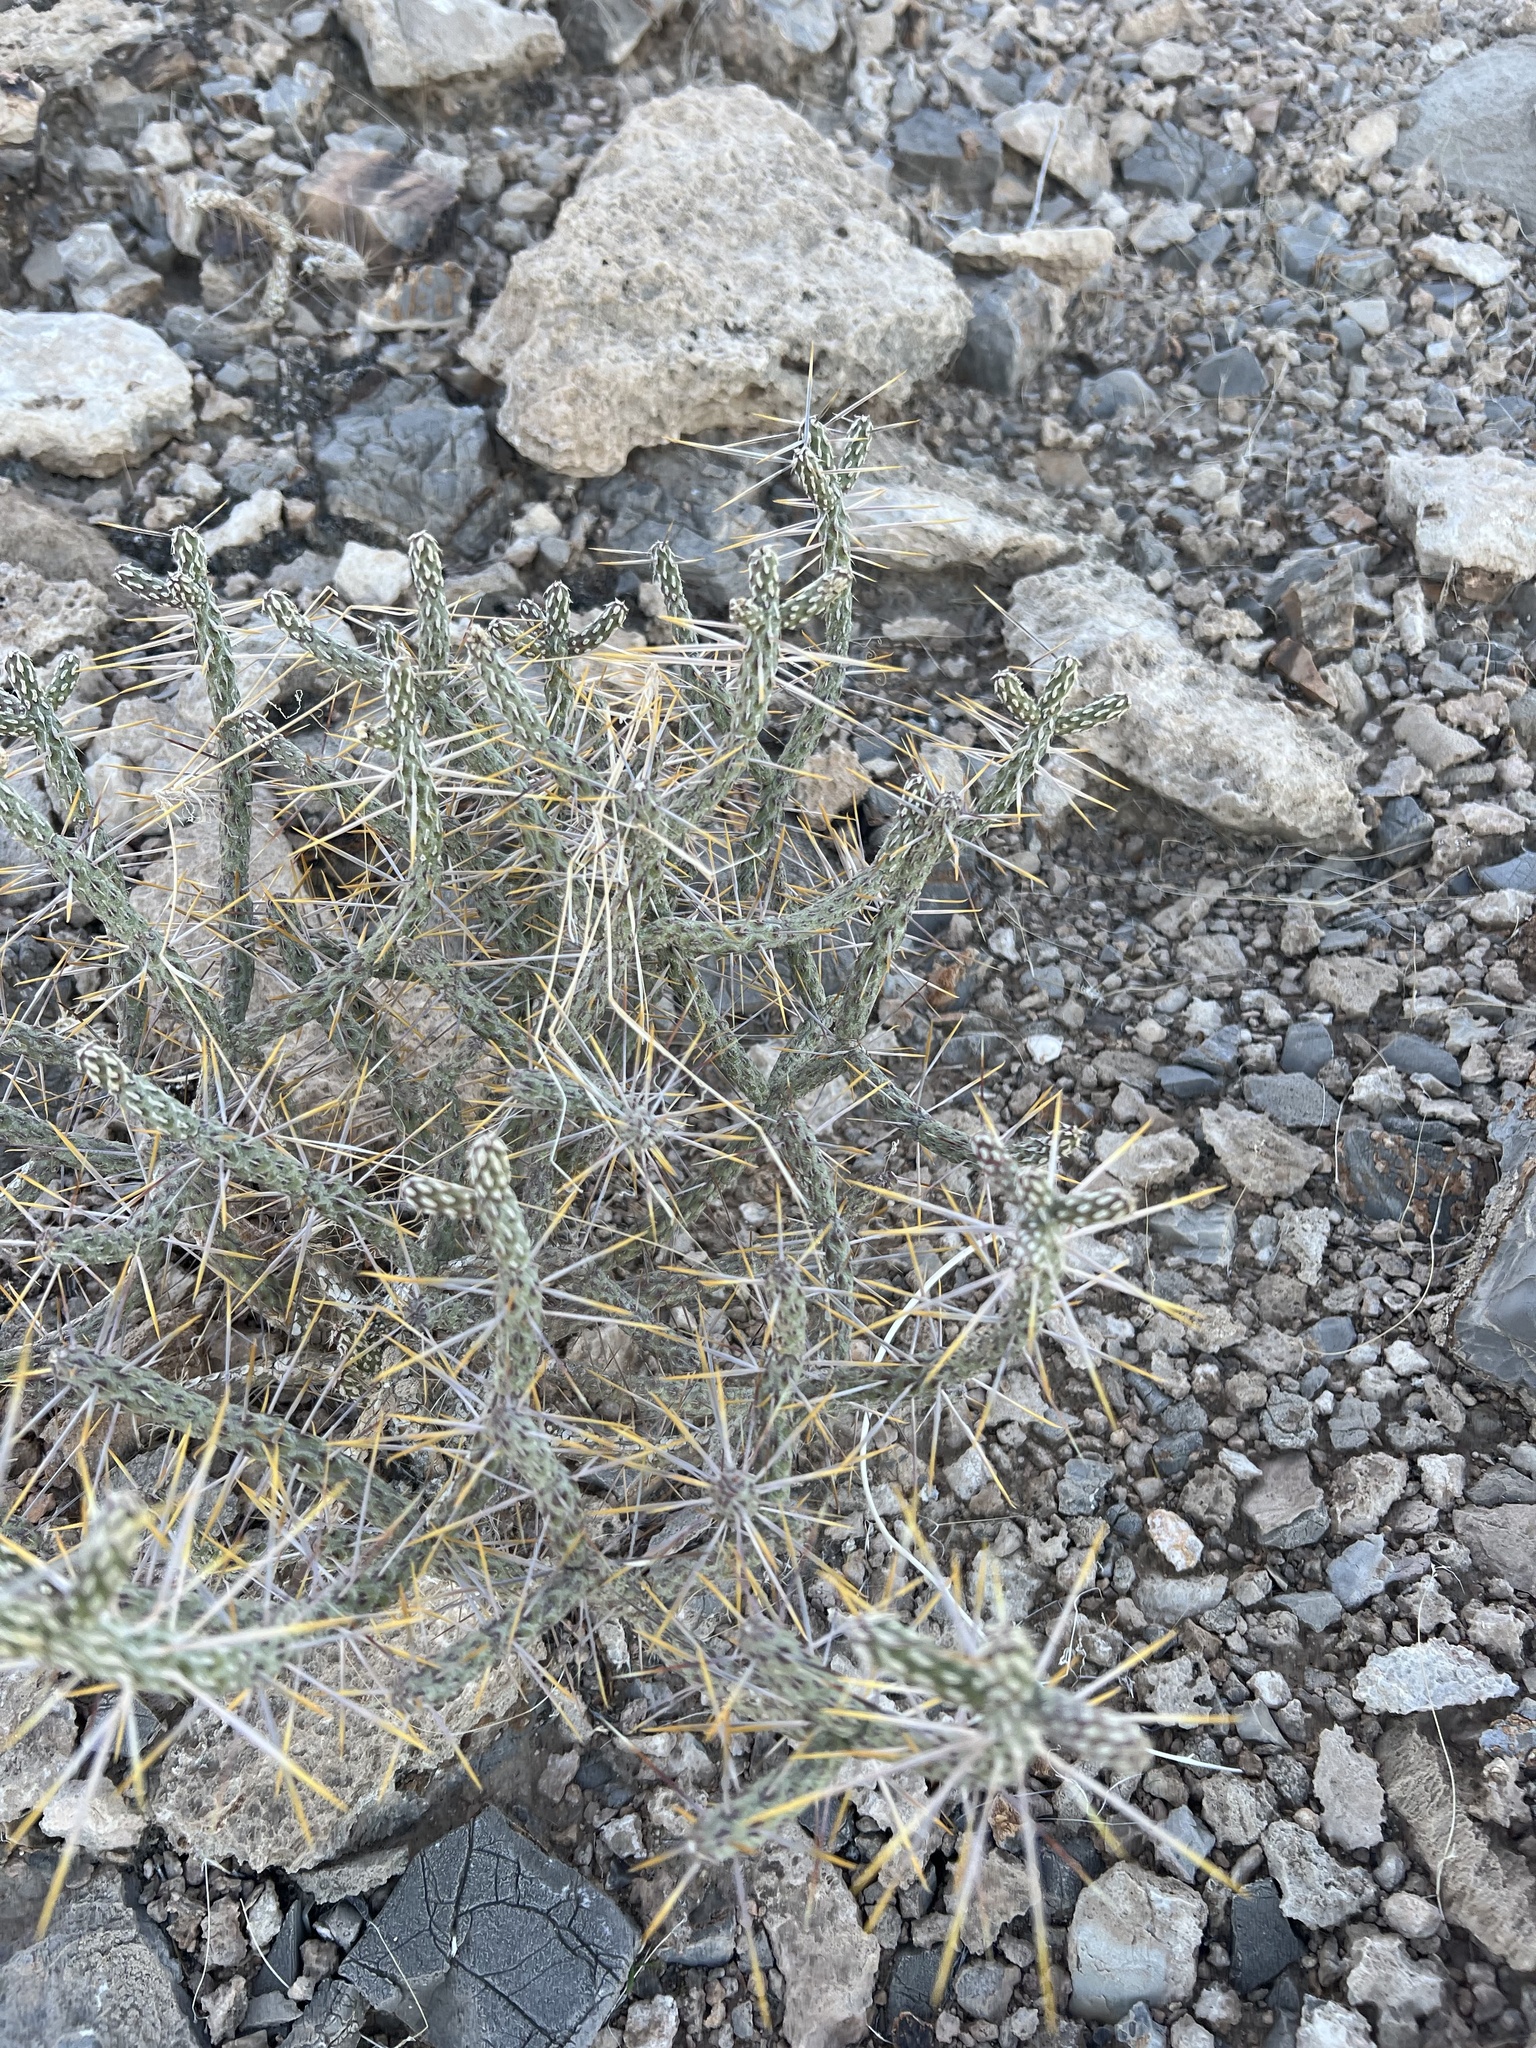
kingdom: Plantae
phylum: Tracheophyta
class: Magnoliopsida
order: Caryophyllales
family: Cactaceae
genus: Cylindropuntia
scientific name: Cylindropuntia ramosissima
